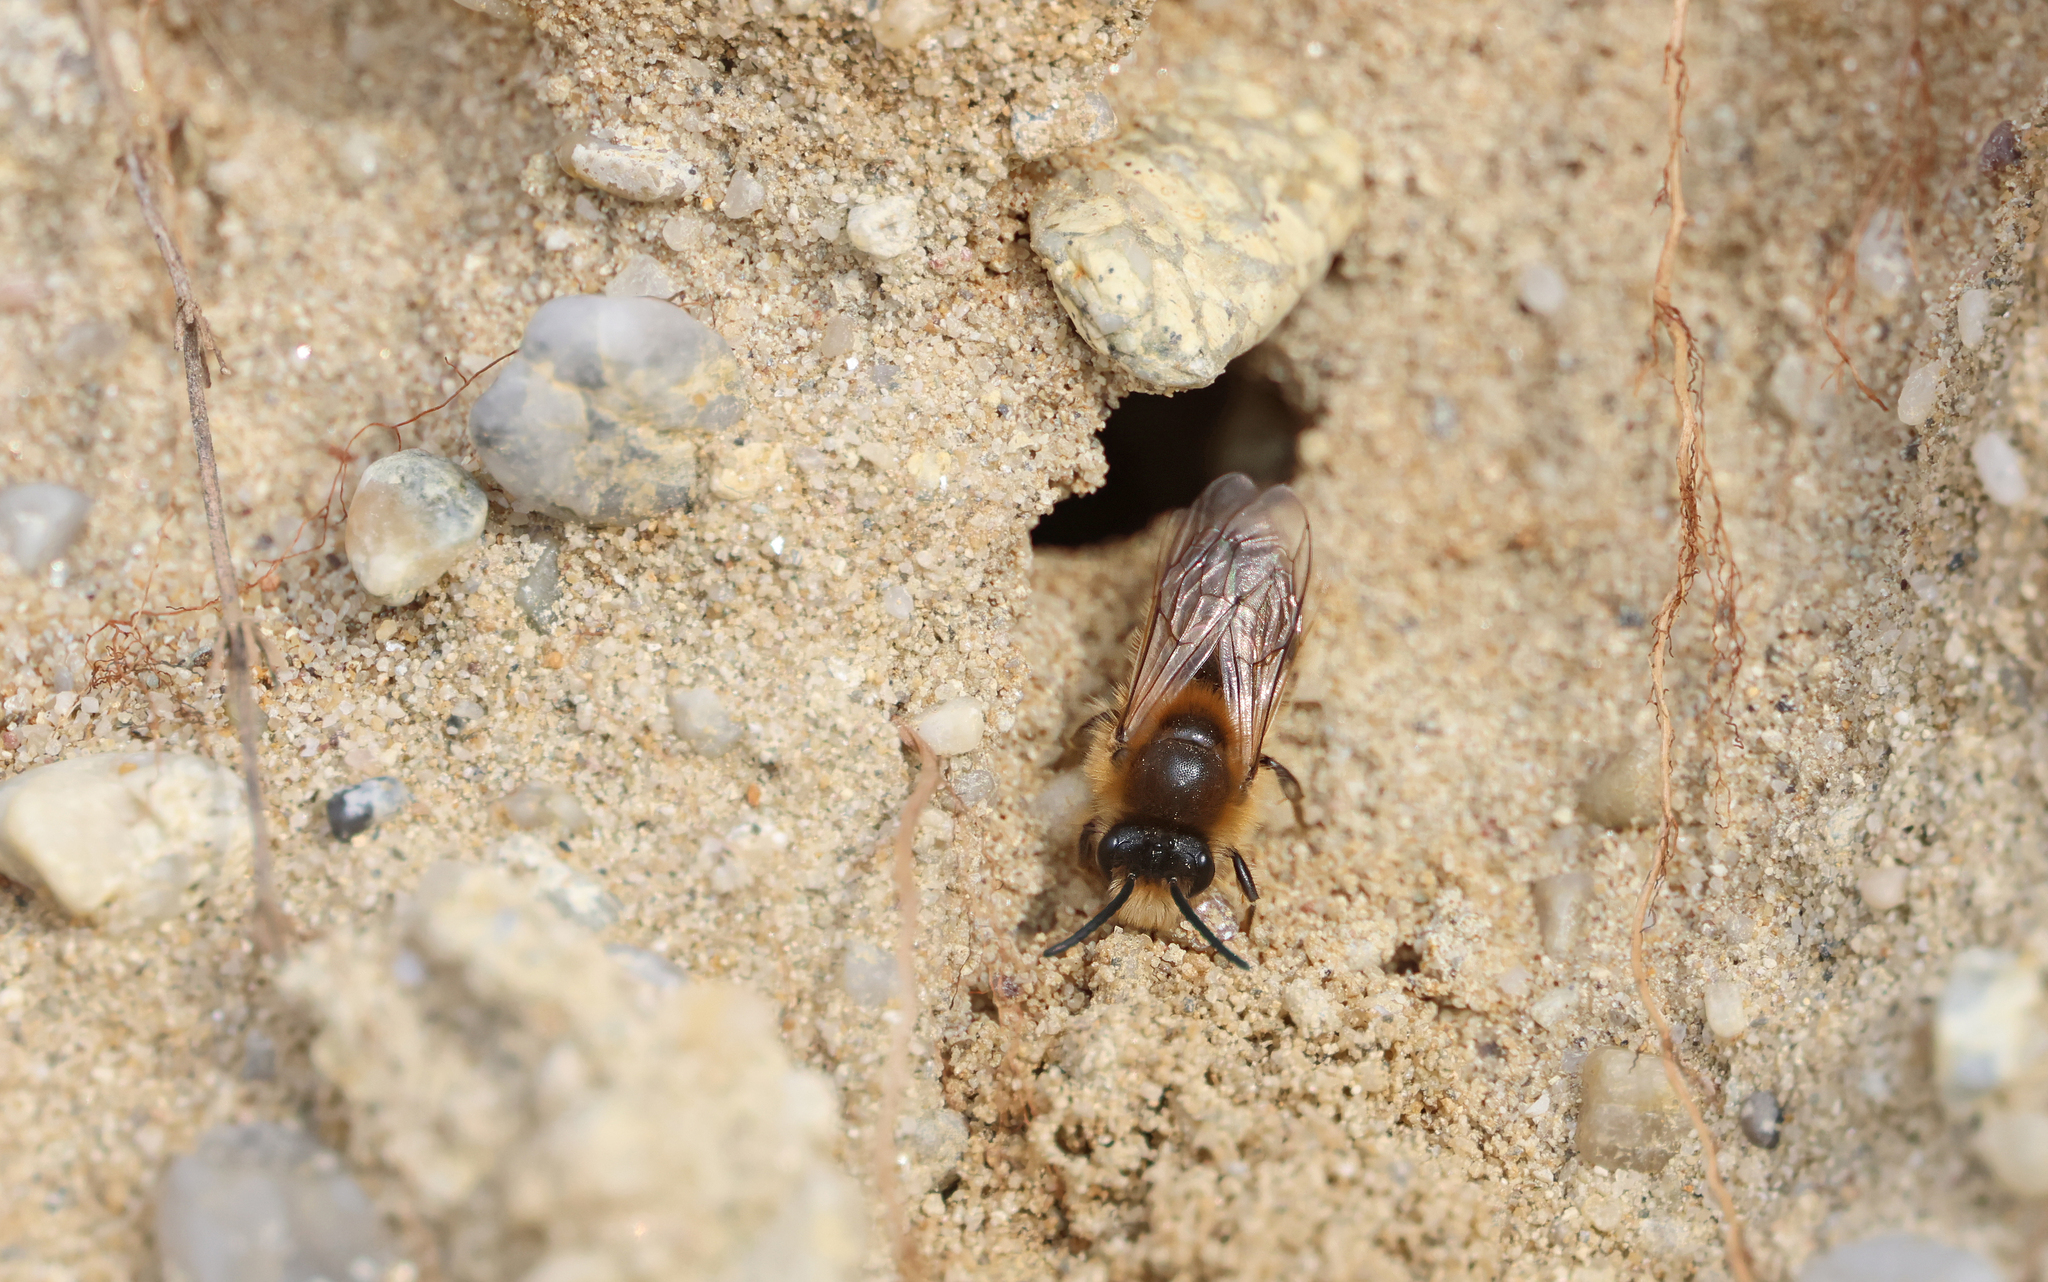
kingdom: Animalia
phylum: Arthropoda
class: Insecta
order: Hymenoptera
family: Colletidae
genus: Colletes
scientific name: Colletes cunicularius
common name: Early colletes
